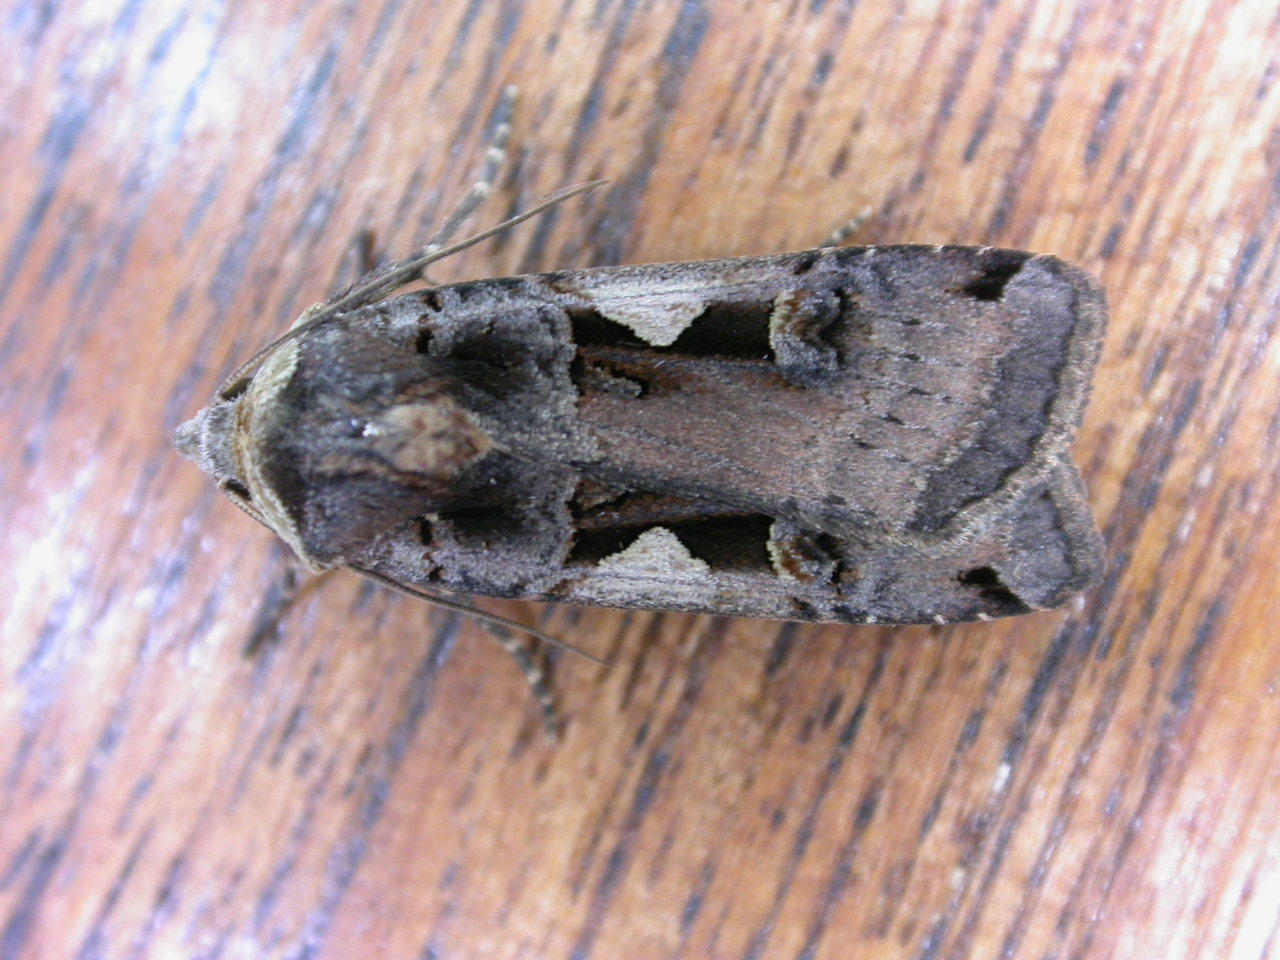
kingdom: Animalia
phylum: Arthropoda
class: Insecta
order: Lepidoptera
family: Noctuidae
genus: Xestia
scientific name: Xestia c-nigrum
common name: Setaceous hebrew character
